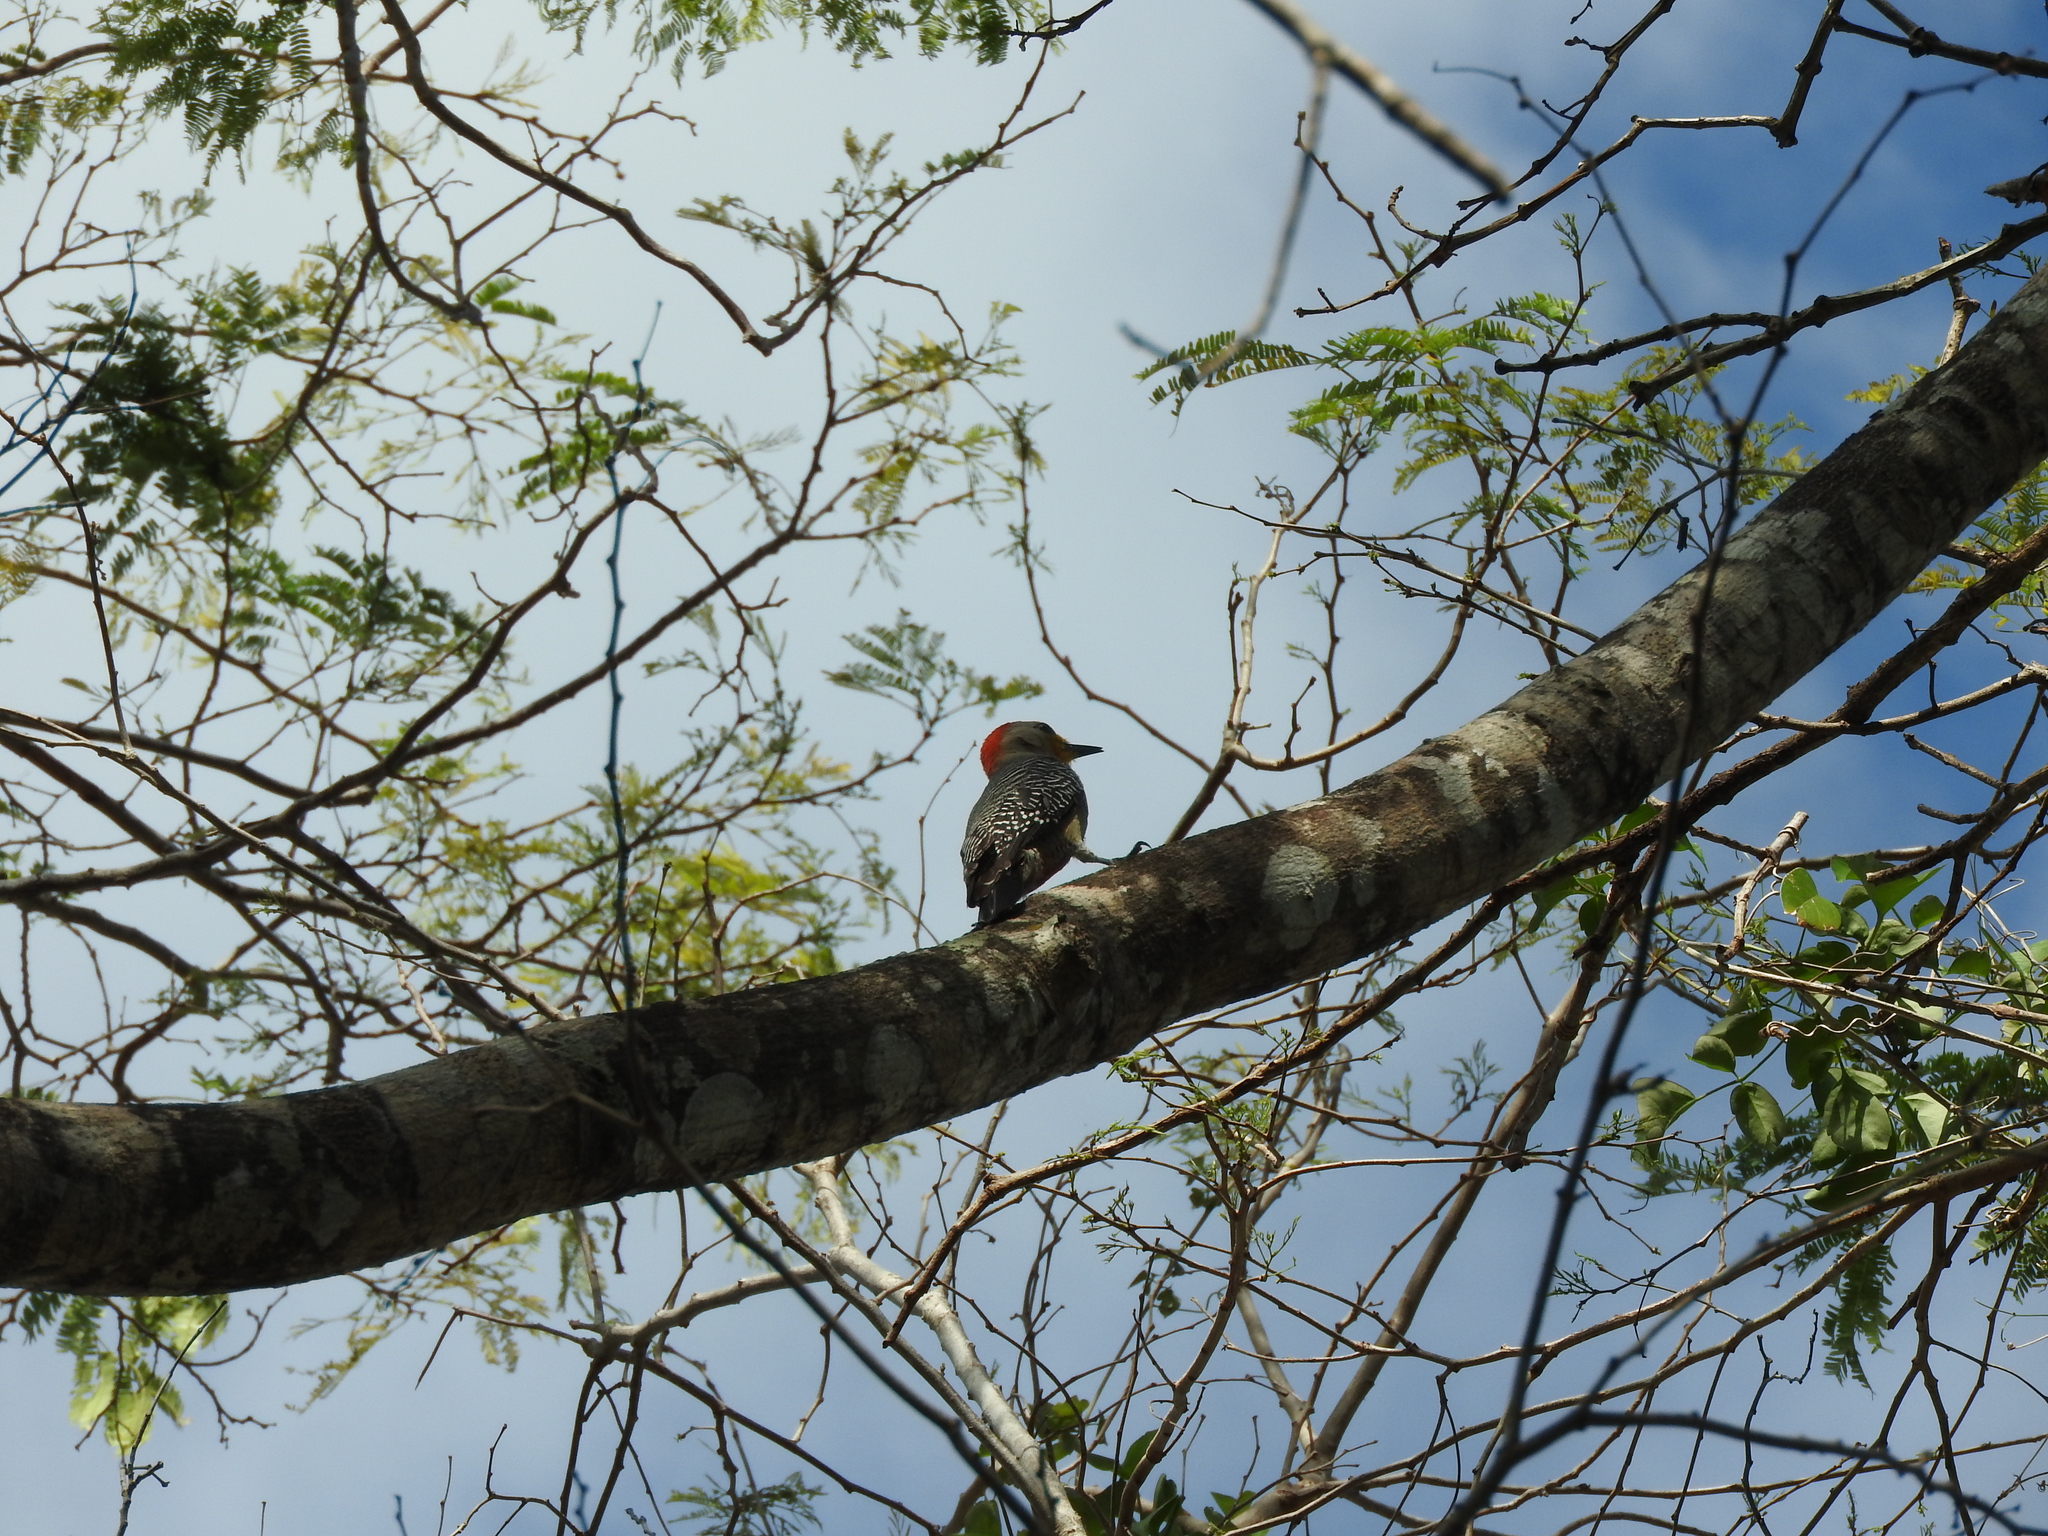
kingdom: Animalia
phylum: Chordata
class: Aves
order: Piciformes
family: Picidae
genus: Melanerpes
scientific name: Melanerpes pygmaeus
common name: Yucatan woodpecker
